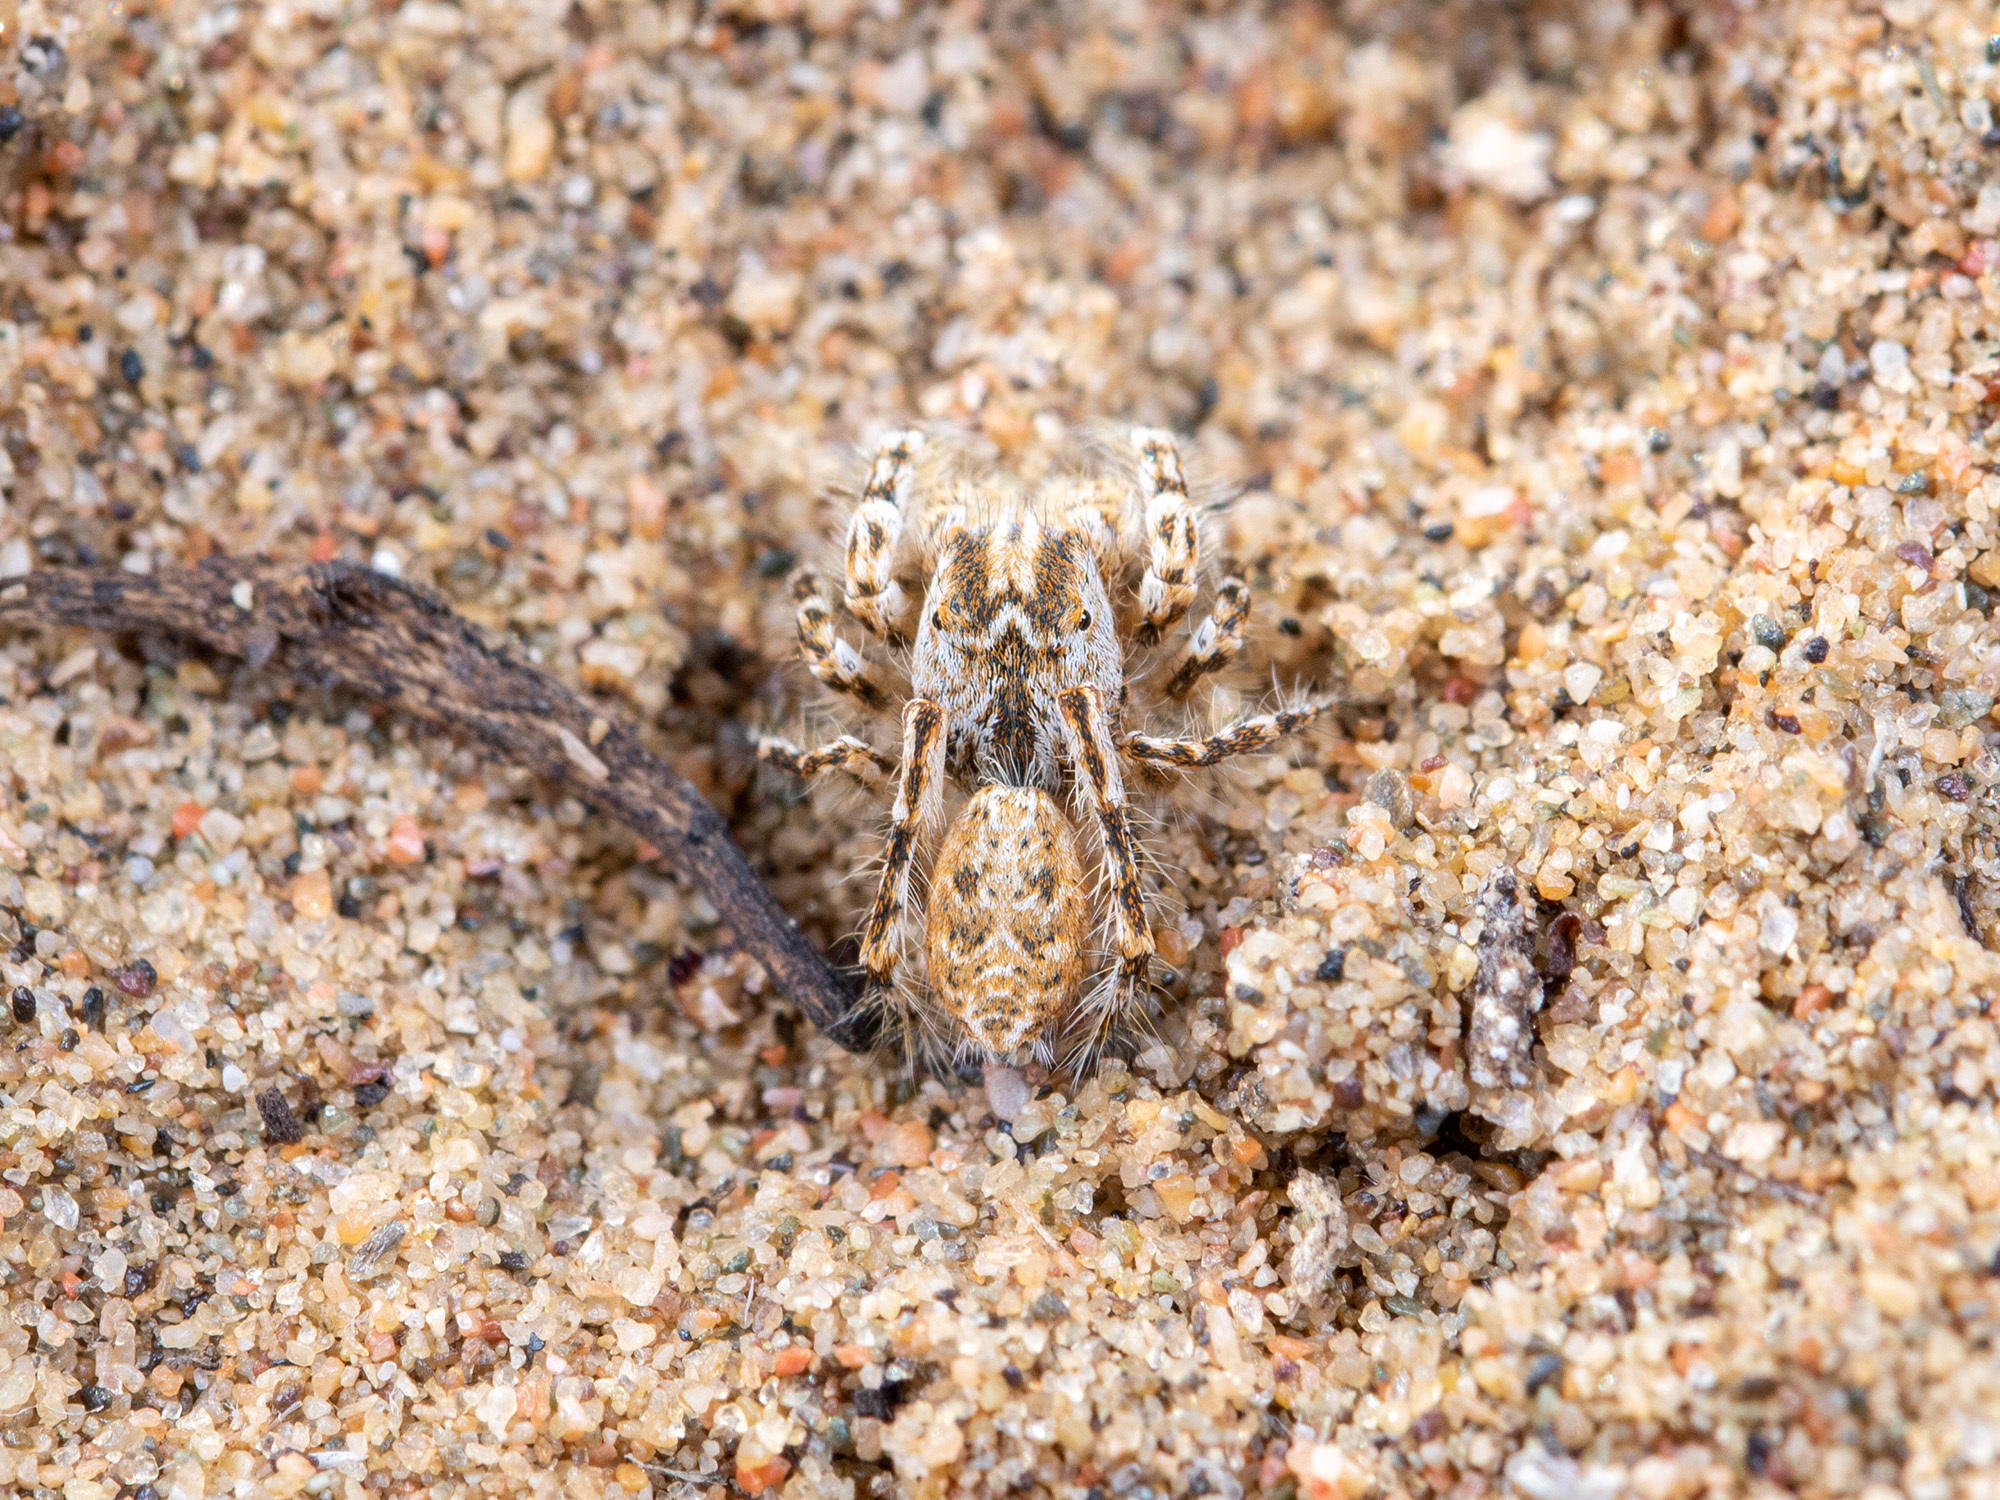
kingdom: Animalia
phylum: Arthropoda
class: Arachnida
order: Araneae
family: Salticidae
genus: Yllenus
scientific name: Yllenus turkestanicus
